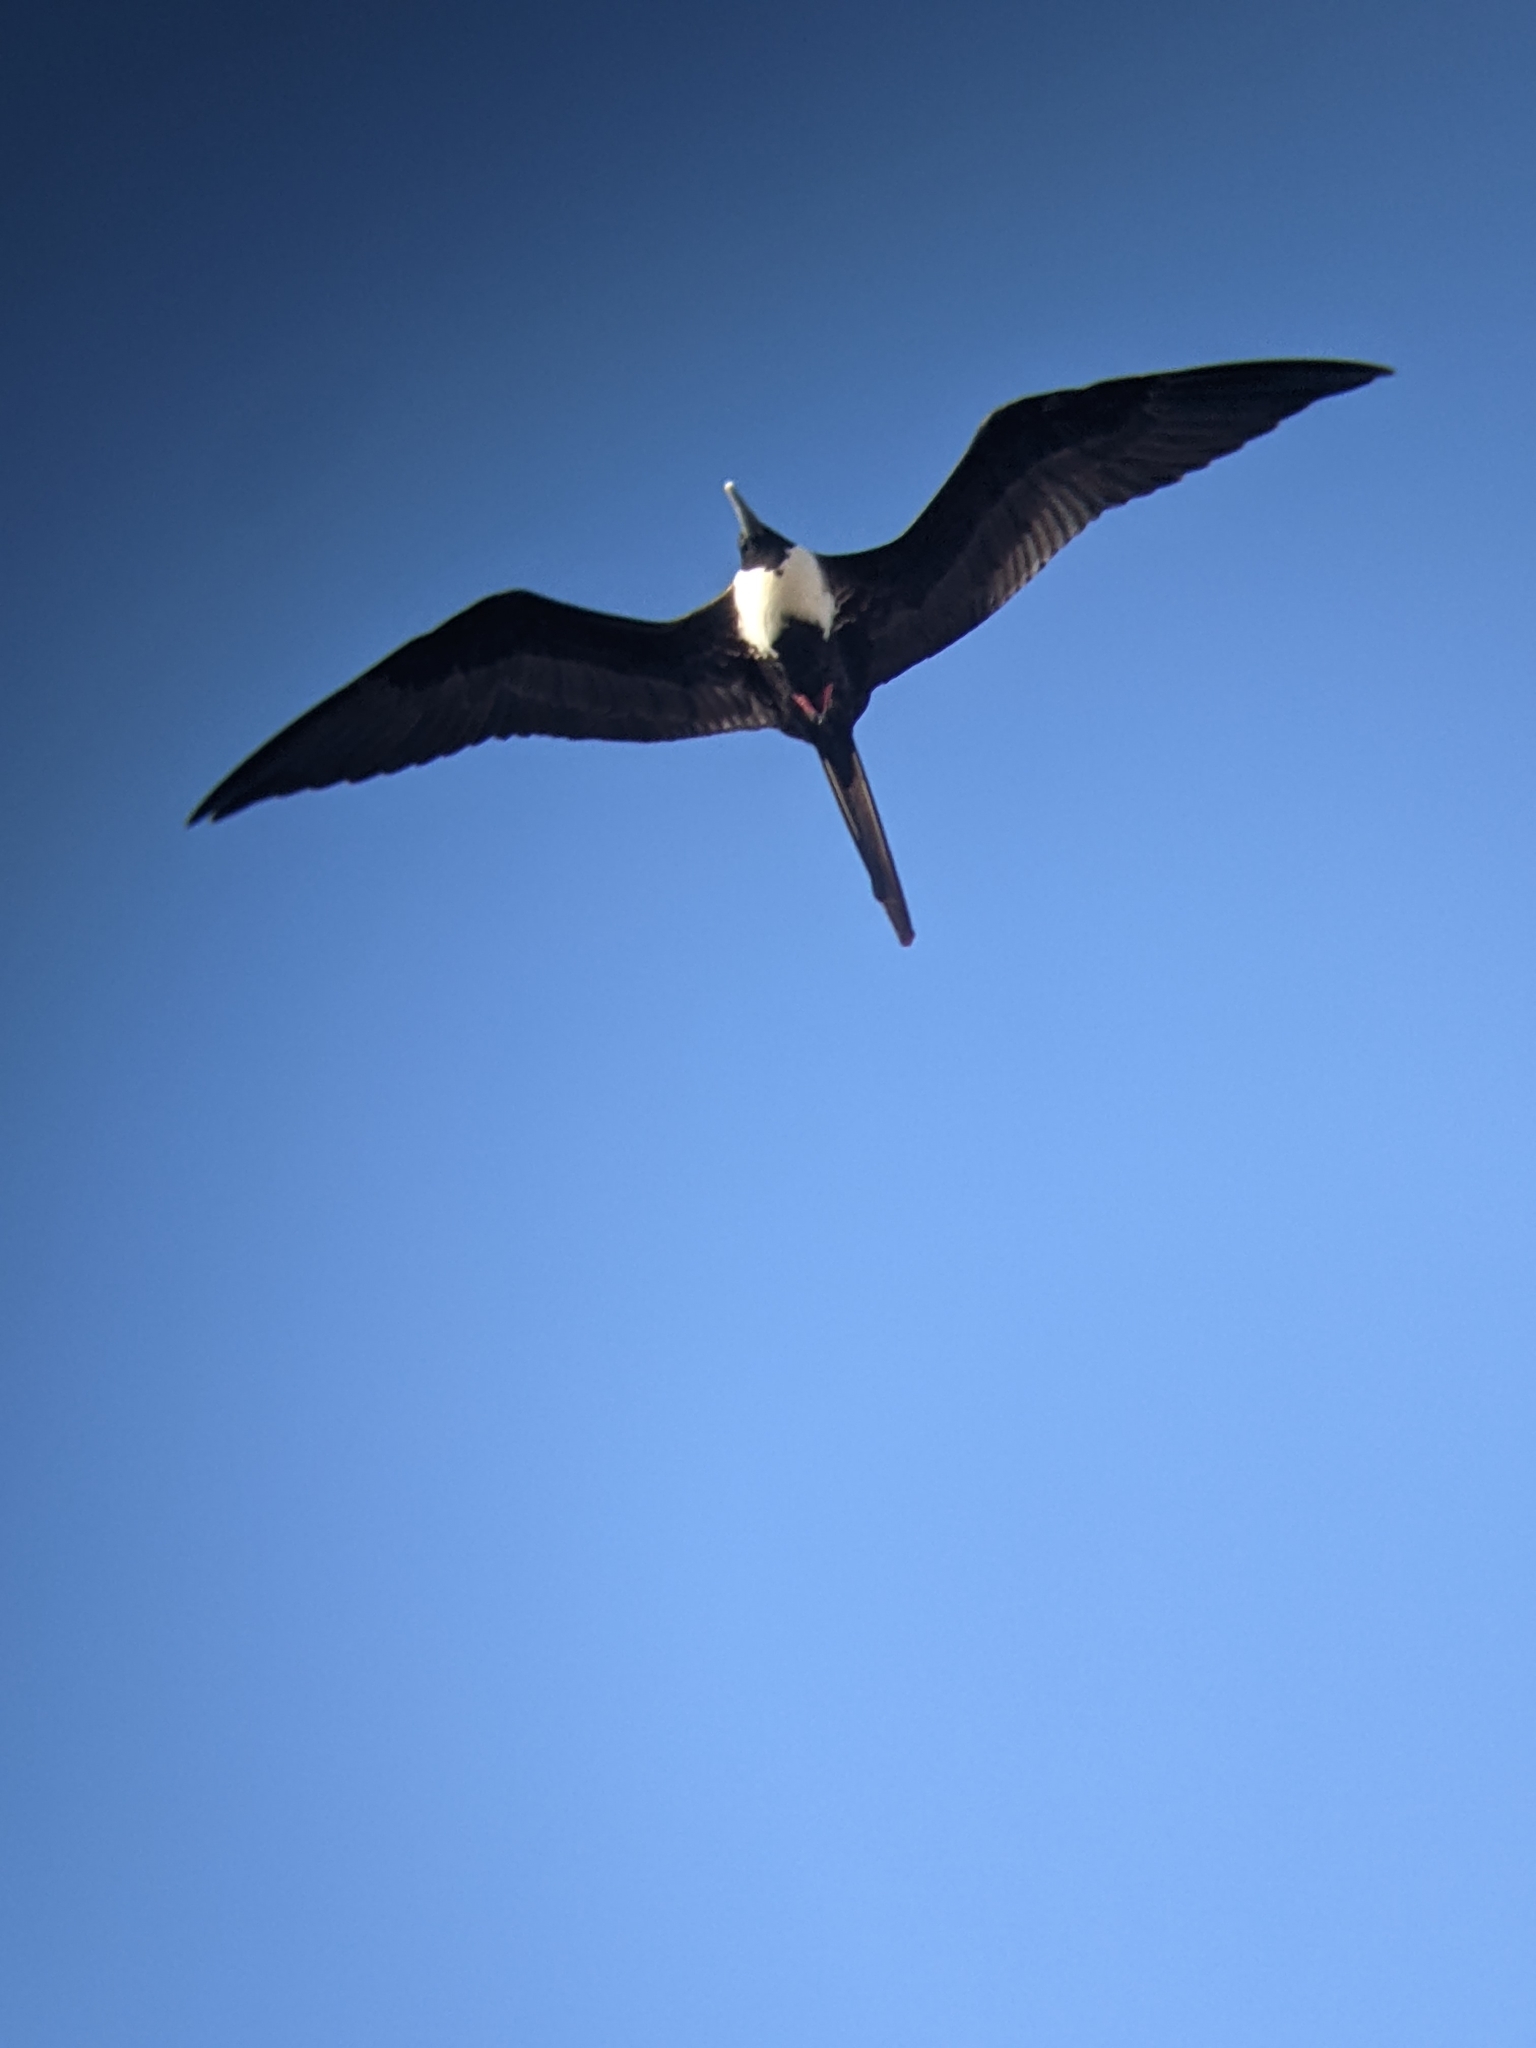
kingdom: Animalia
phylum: Chordata
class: Aves
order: Suliformes
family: Fregatidae
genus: Fregata
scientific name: Fregata magnificens
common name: Magnificent frigatebird
